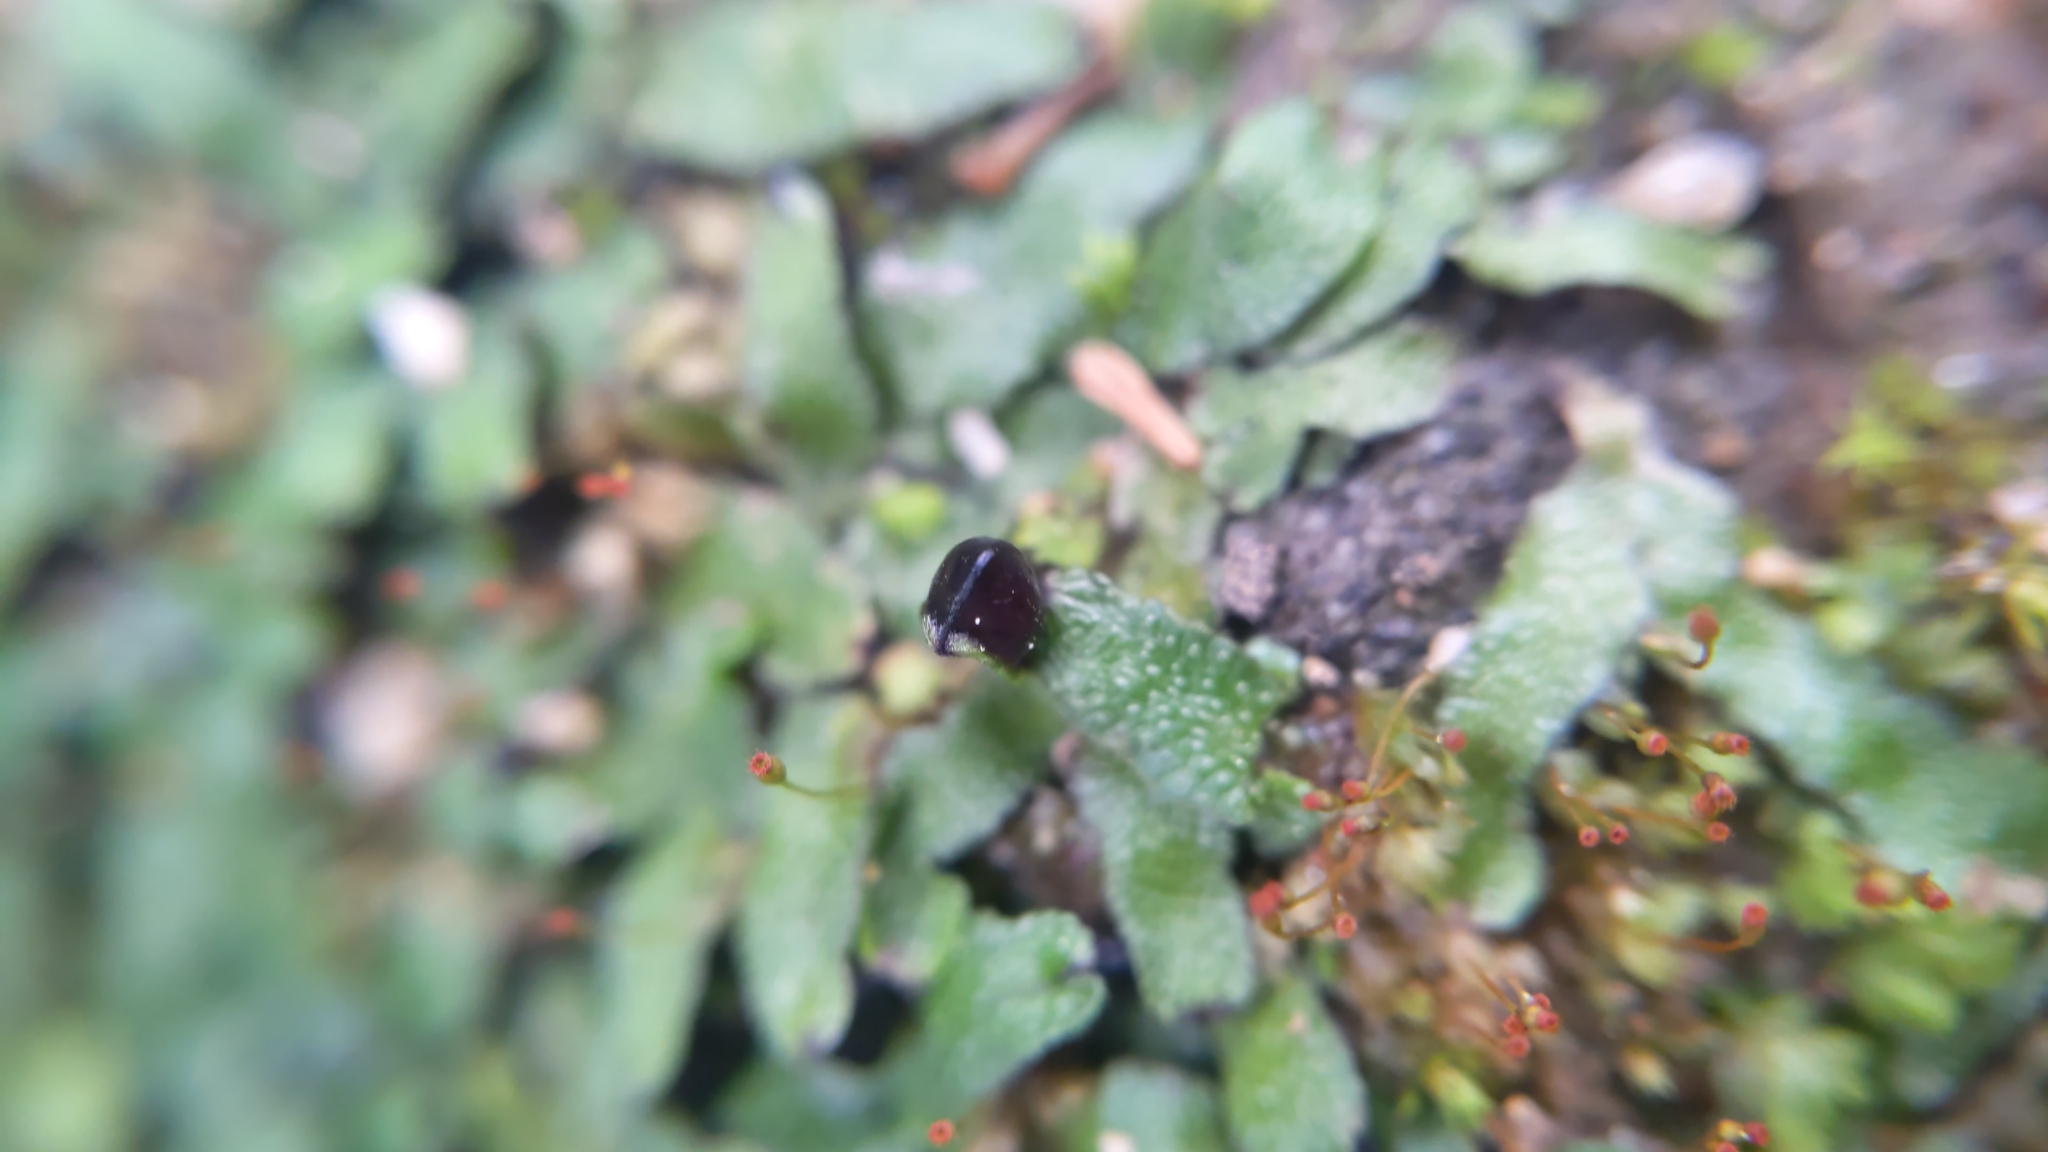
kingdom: Plantae
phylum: Marchantiophyta
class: Marchantiopsida
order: Marchantiales
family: Targioniaceae
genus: Targionia
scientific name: Targionia hypophylla
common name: Orobus-seed liverwort
